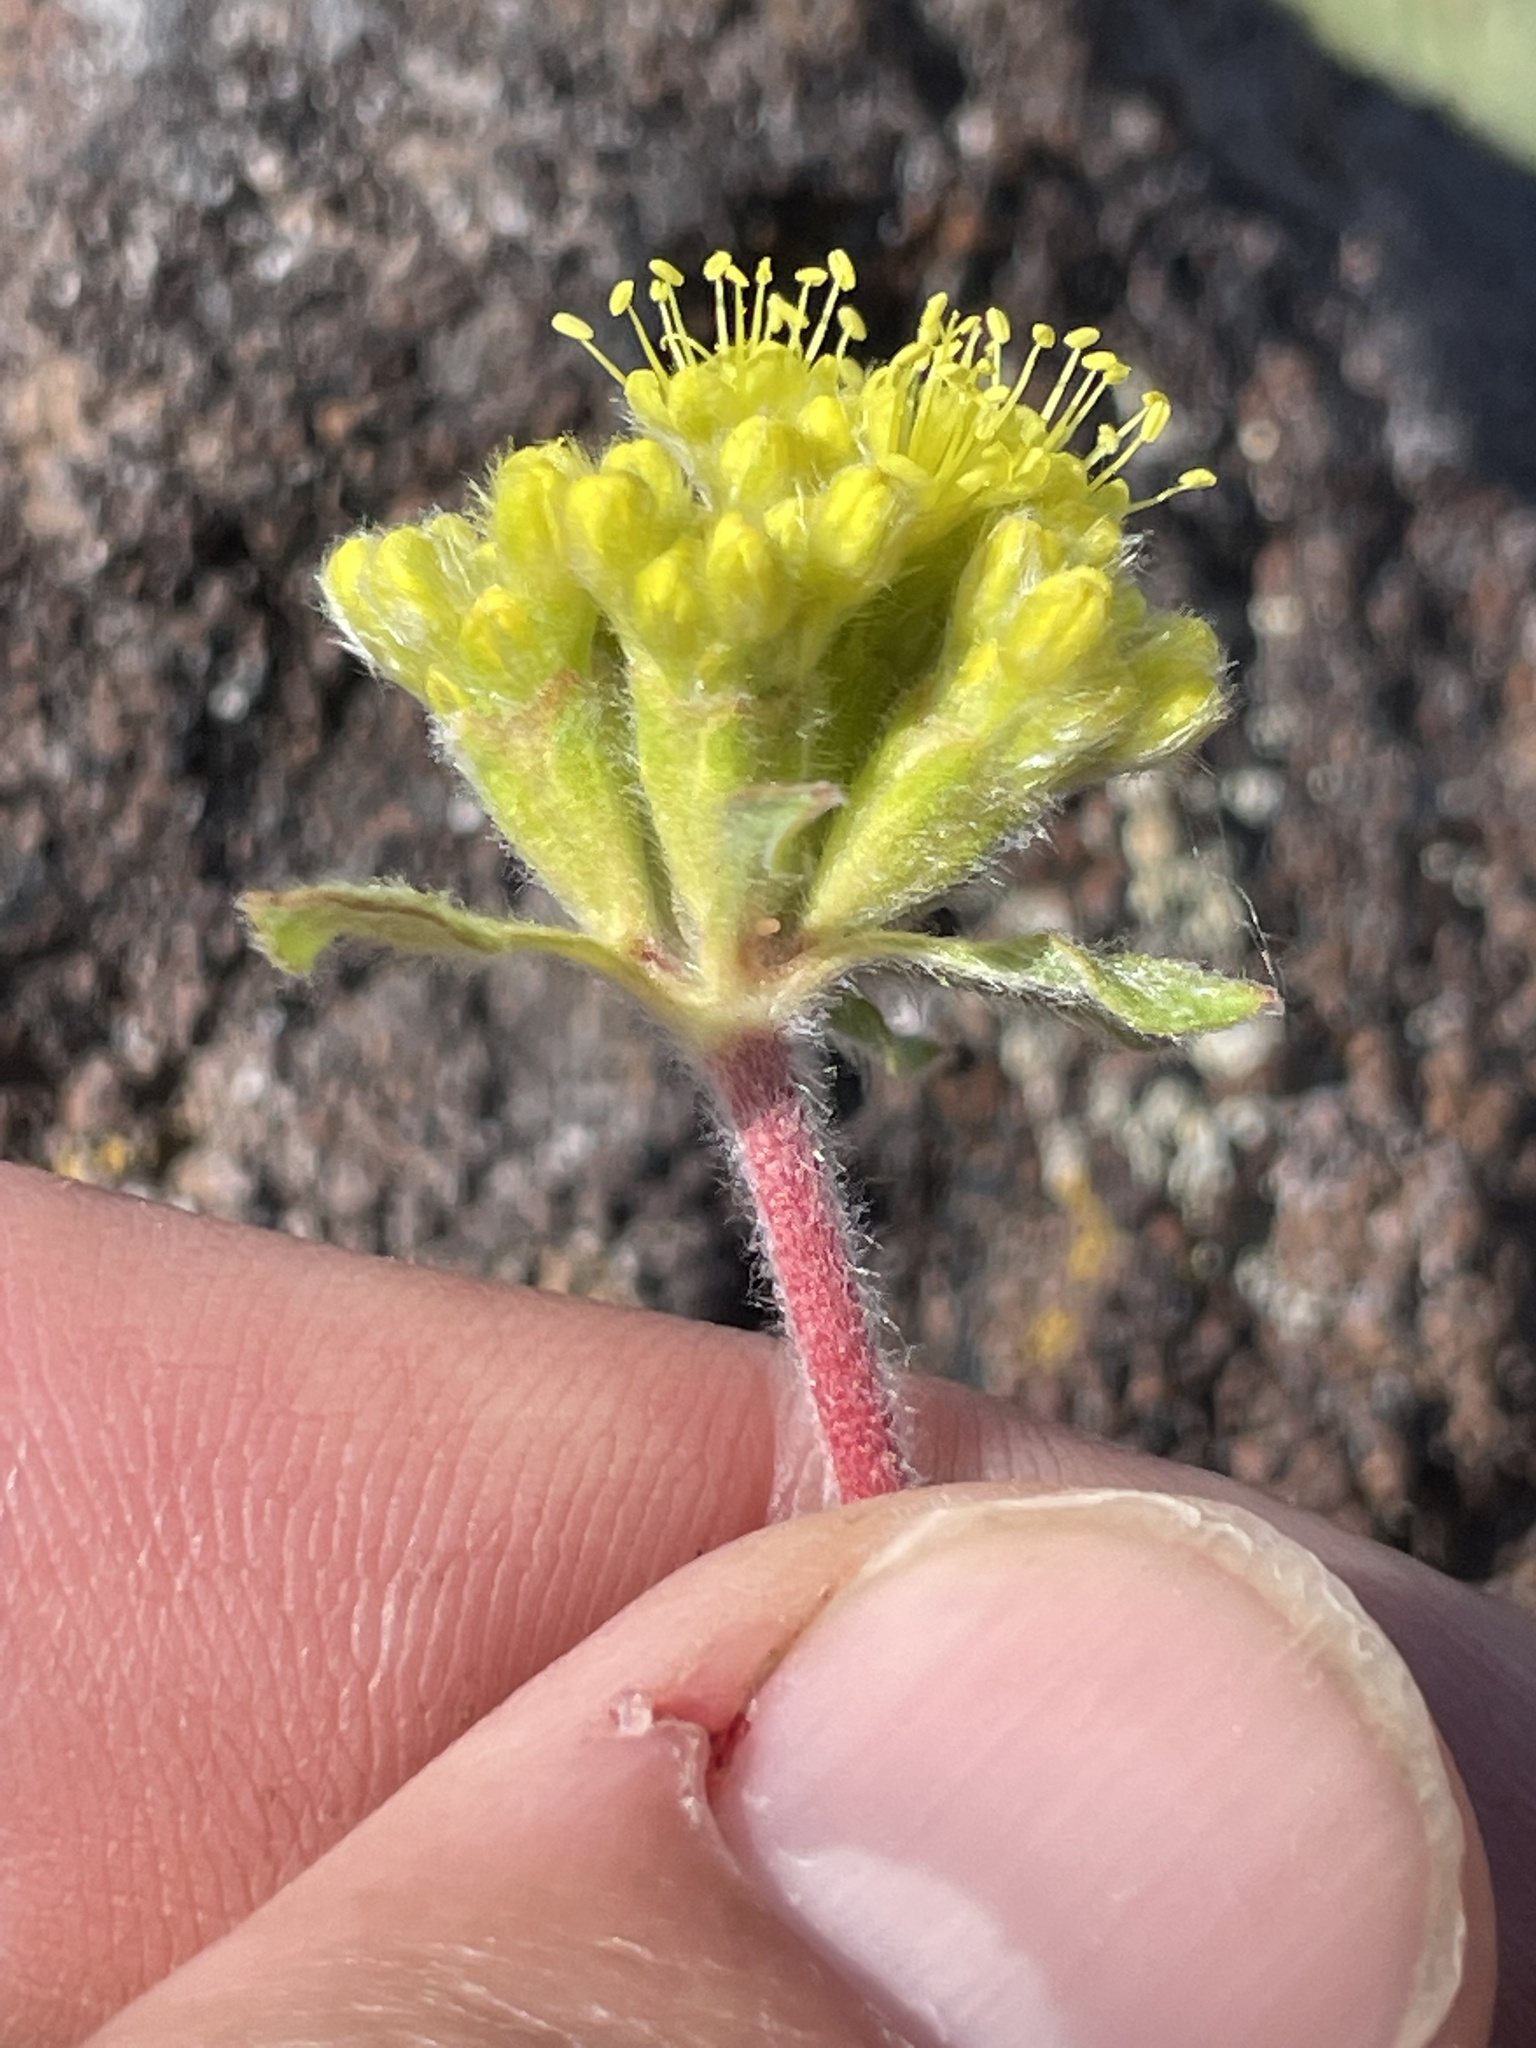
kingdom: Plantae
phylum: Tracheophyta
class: Magnoliopsida
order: Caryophyllales
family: Polygonaceae
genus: Eriogonum
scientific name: Eriogonum flavum
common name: Alpine golden wild buckwheat
